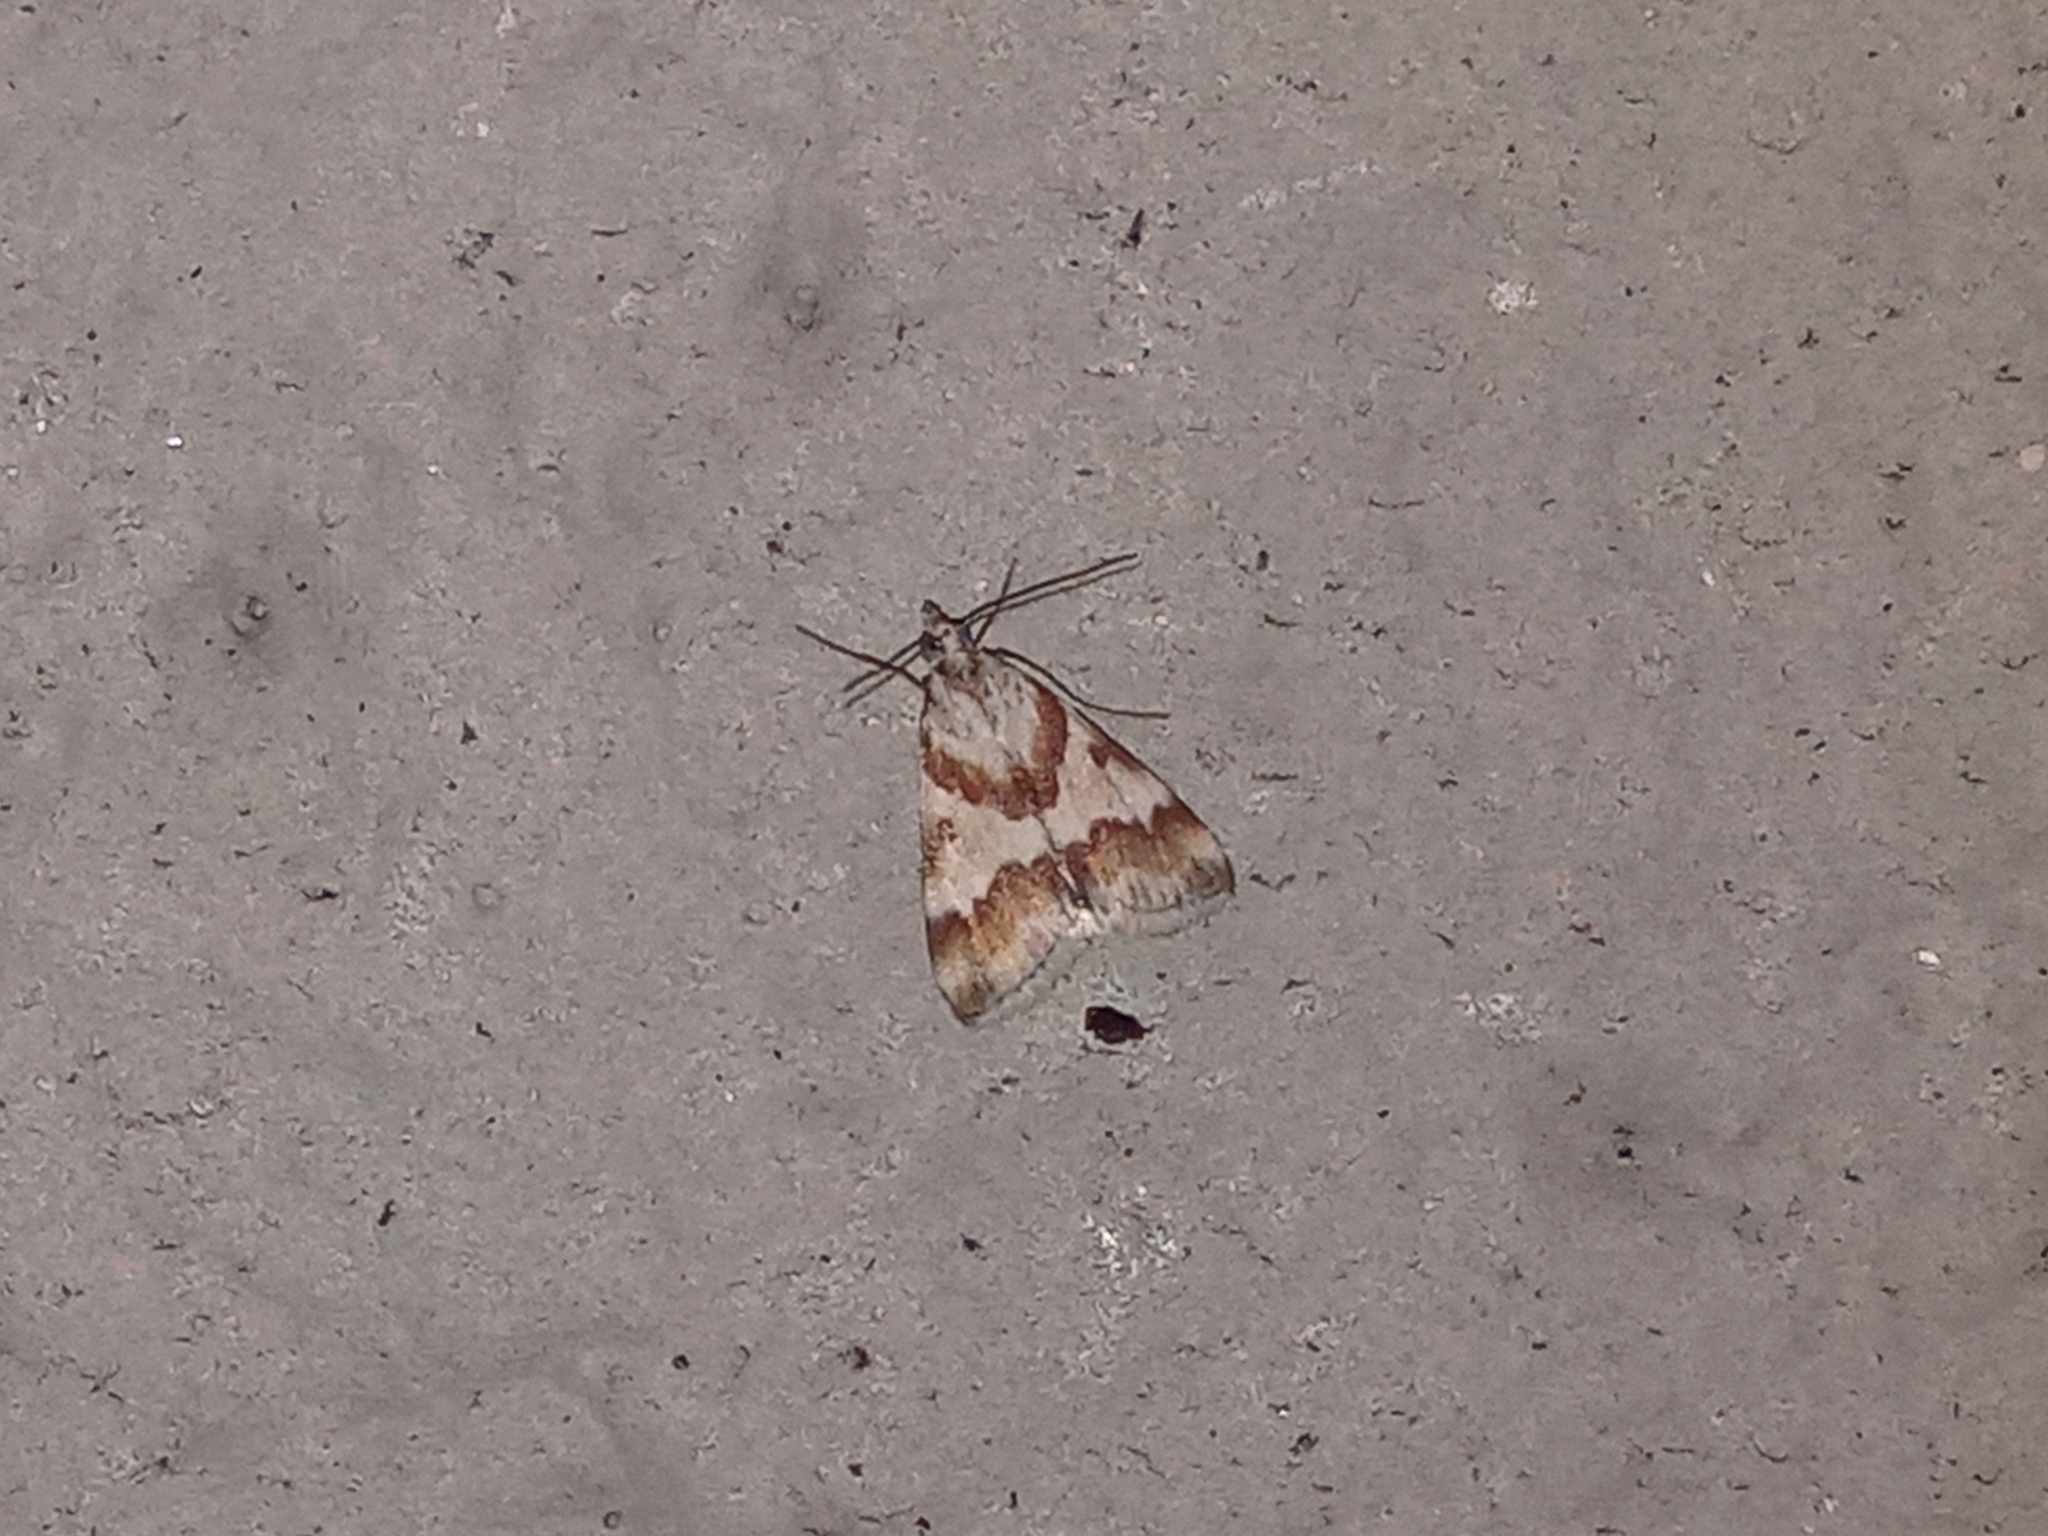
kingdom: Animalia
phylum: Arthropoda
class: Insecta
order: Lepidoptera
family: Crambidae
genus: Noctuelia
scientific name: Noctuelia Mimoschinia rufofascialis
